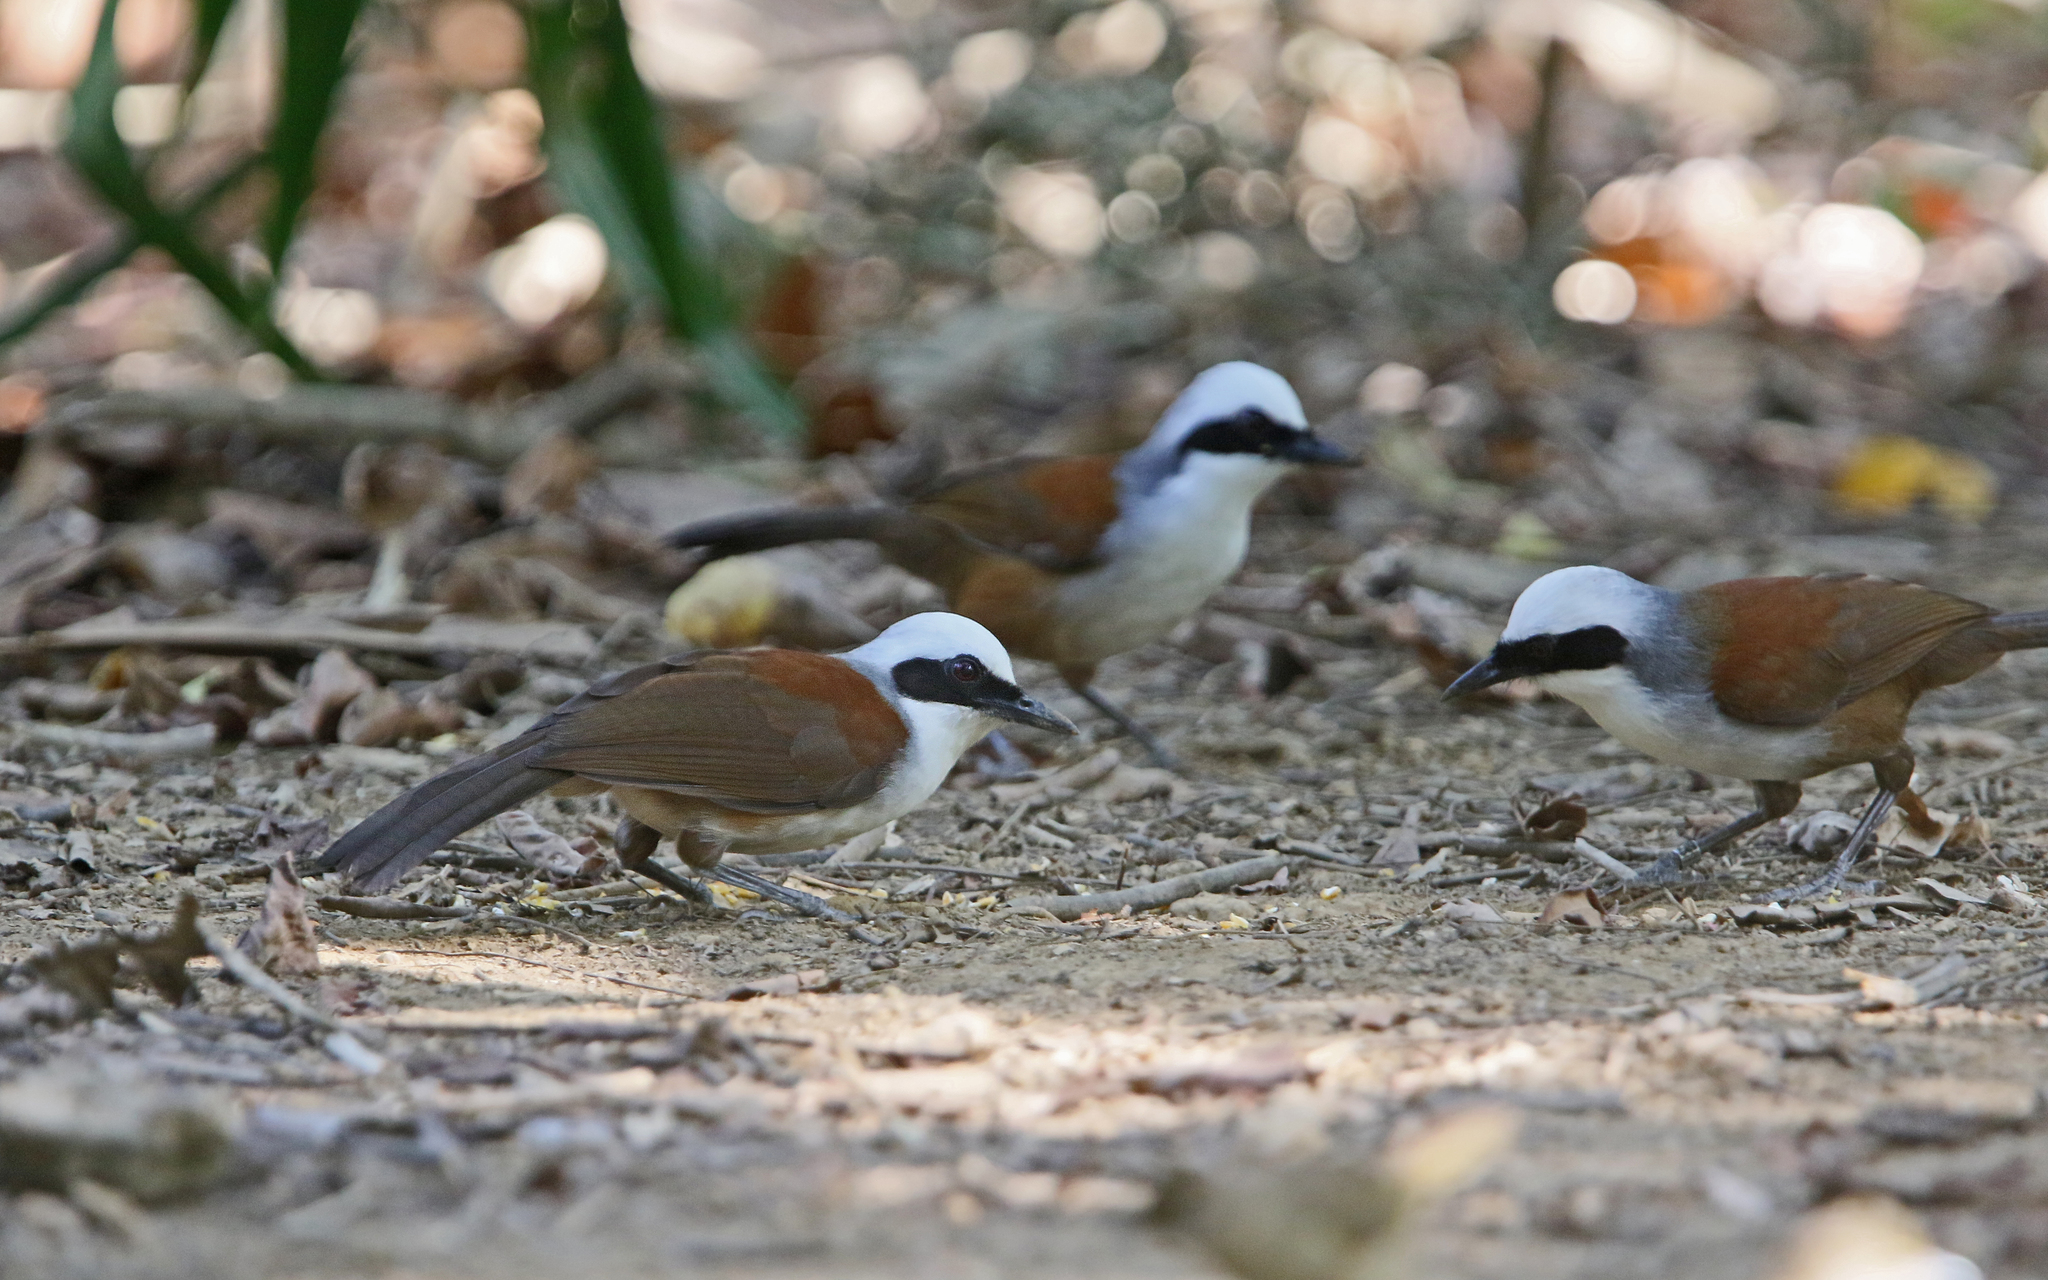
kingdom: Animalia
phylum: Chordata
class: Aves
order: Passeriformes
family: Leiothrichidae
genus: Garrulax
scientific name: Garrulax leucolophus
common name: White-crested laughingthrush
